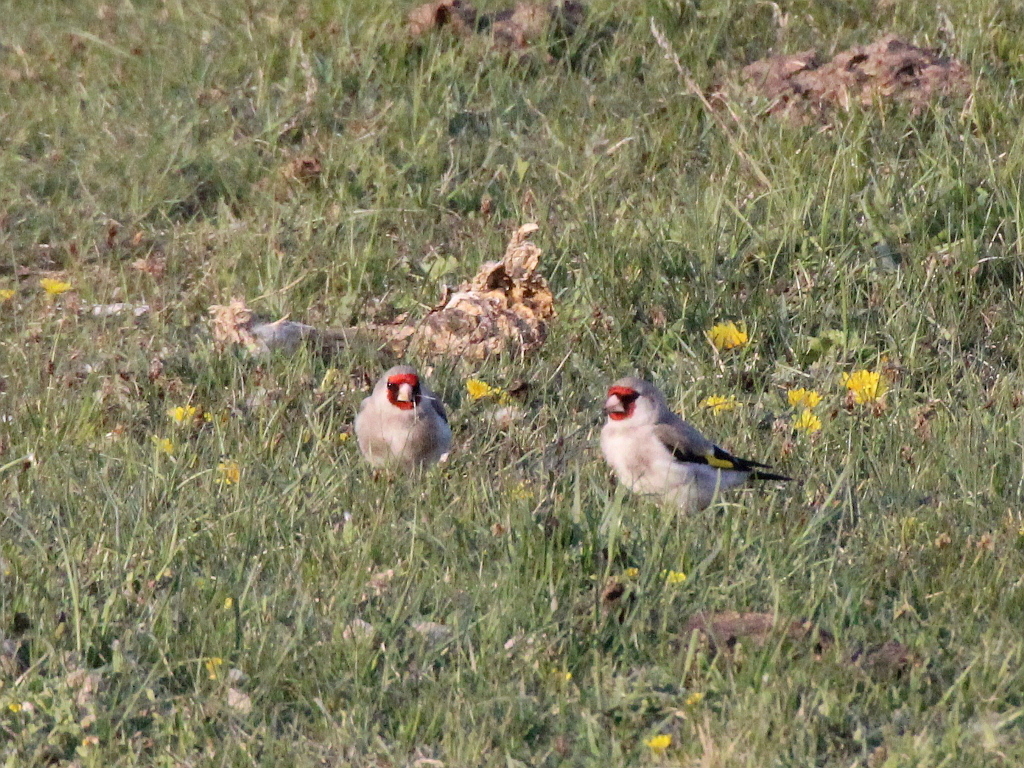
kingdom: Animalia
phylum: Chordata
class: Aves
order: Passeriformes
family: Fringillidae
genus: Carduelis
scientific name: Carduelis carduelis
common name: European goldfinch
